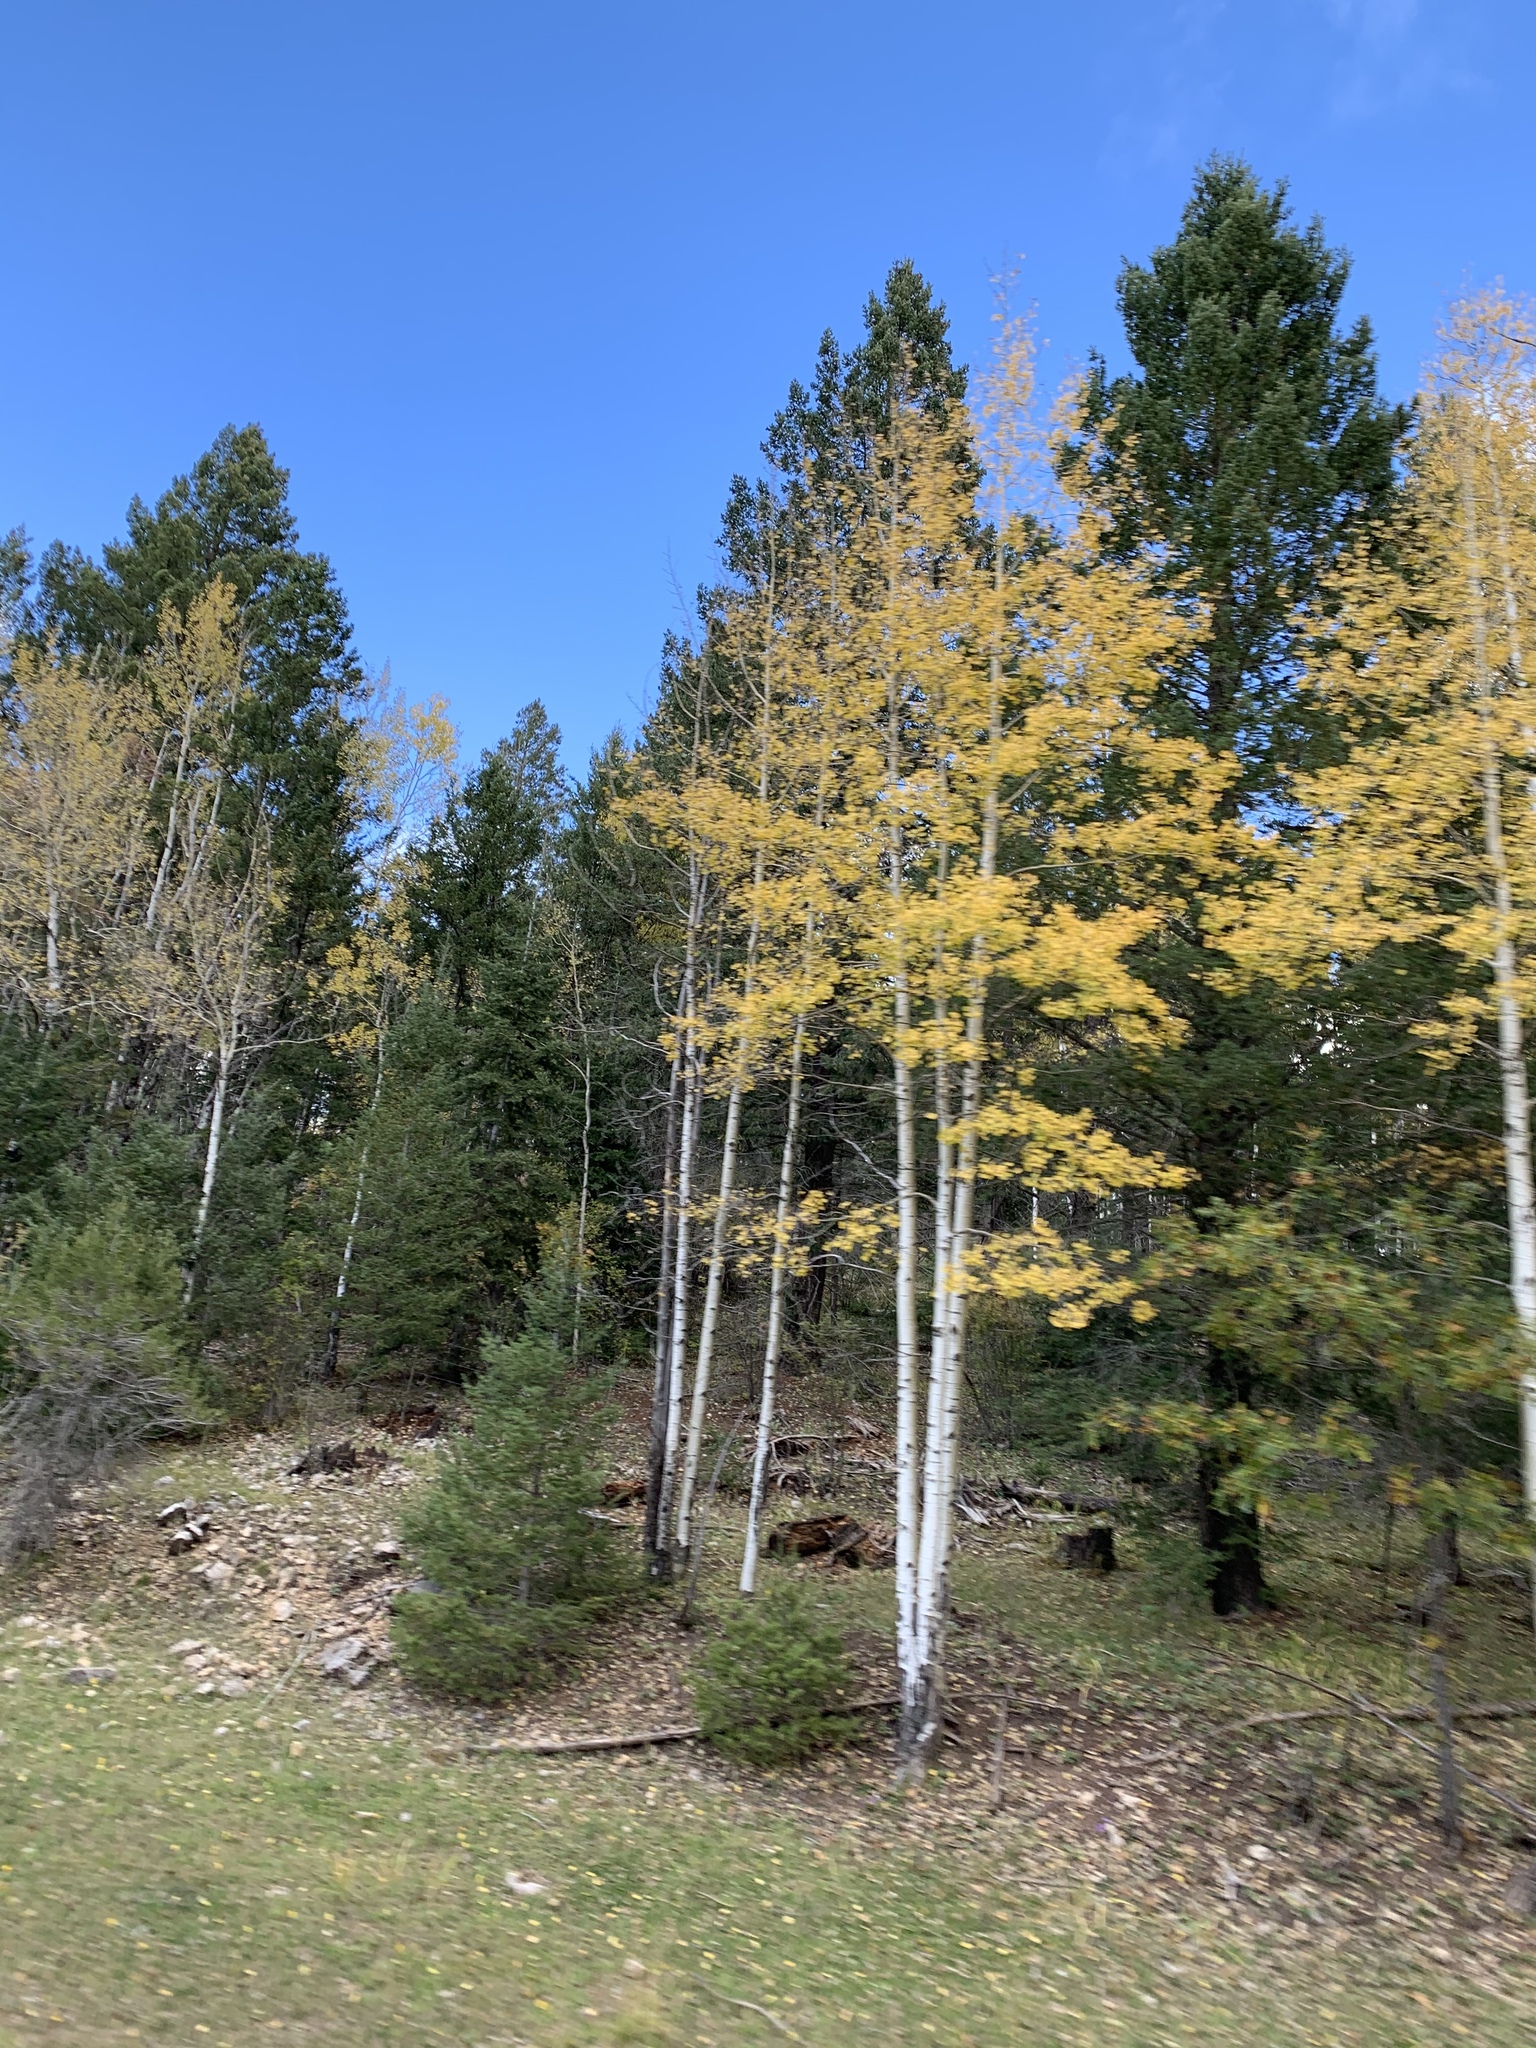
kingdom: Plantae
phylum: Tracheophyta
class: Magnoliopsida
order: Malpighiales
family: Salicaceae
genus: Populus
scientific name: Populus tremuloides
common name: Quaking aspen
